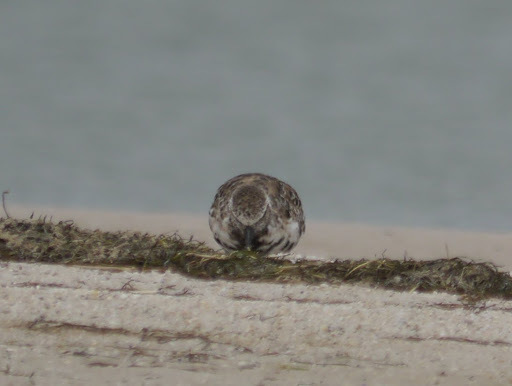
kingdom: Animalia
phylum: Chordata
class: Aves
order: Charadriiformes
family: Charadriidae
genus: Pluvialis
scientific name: Pluvialis squatarola
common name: Grey plover
